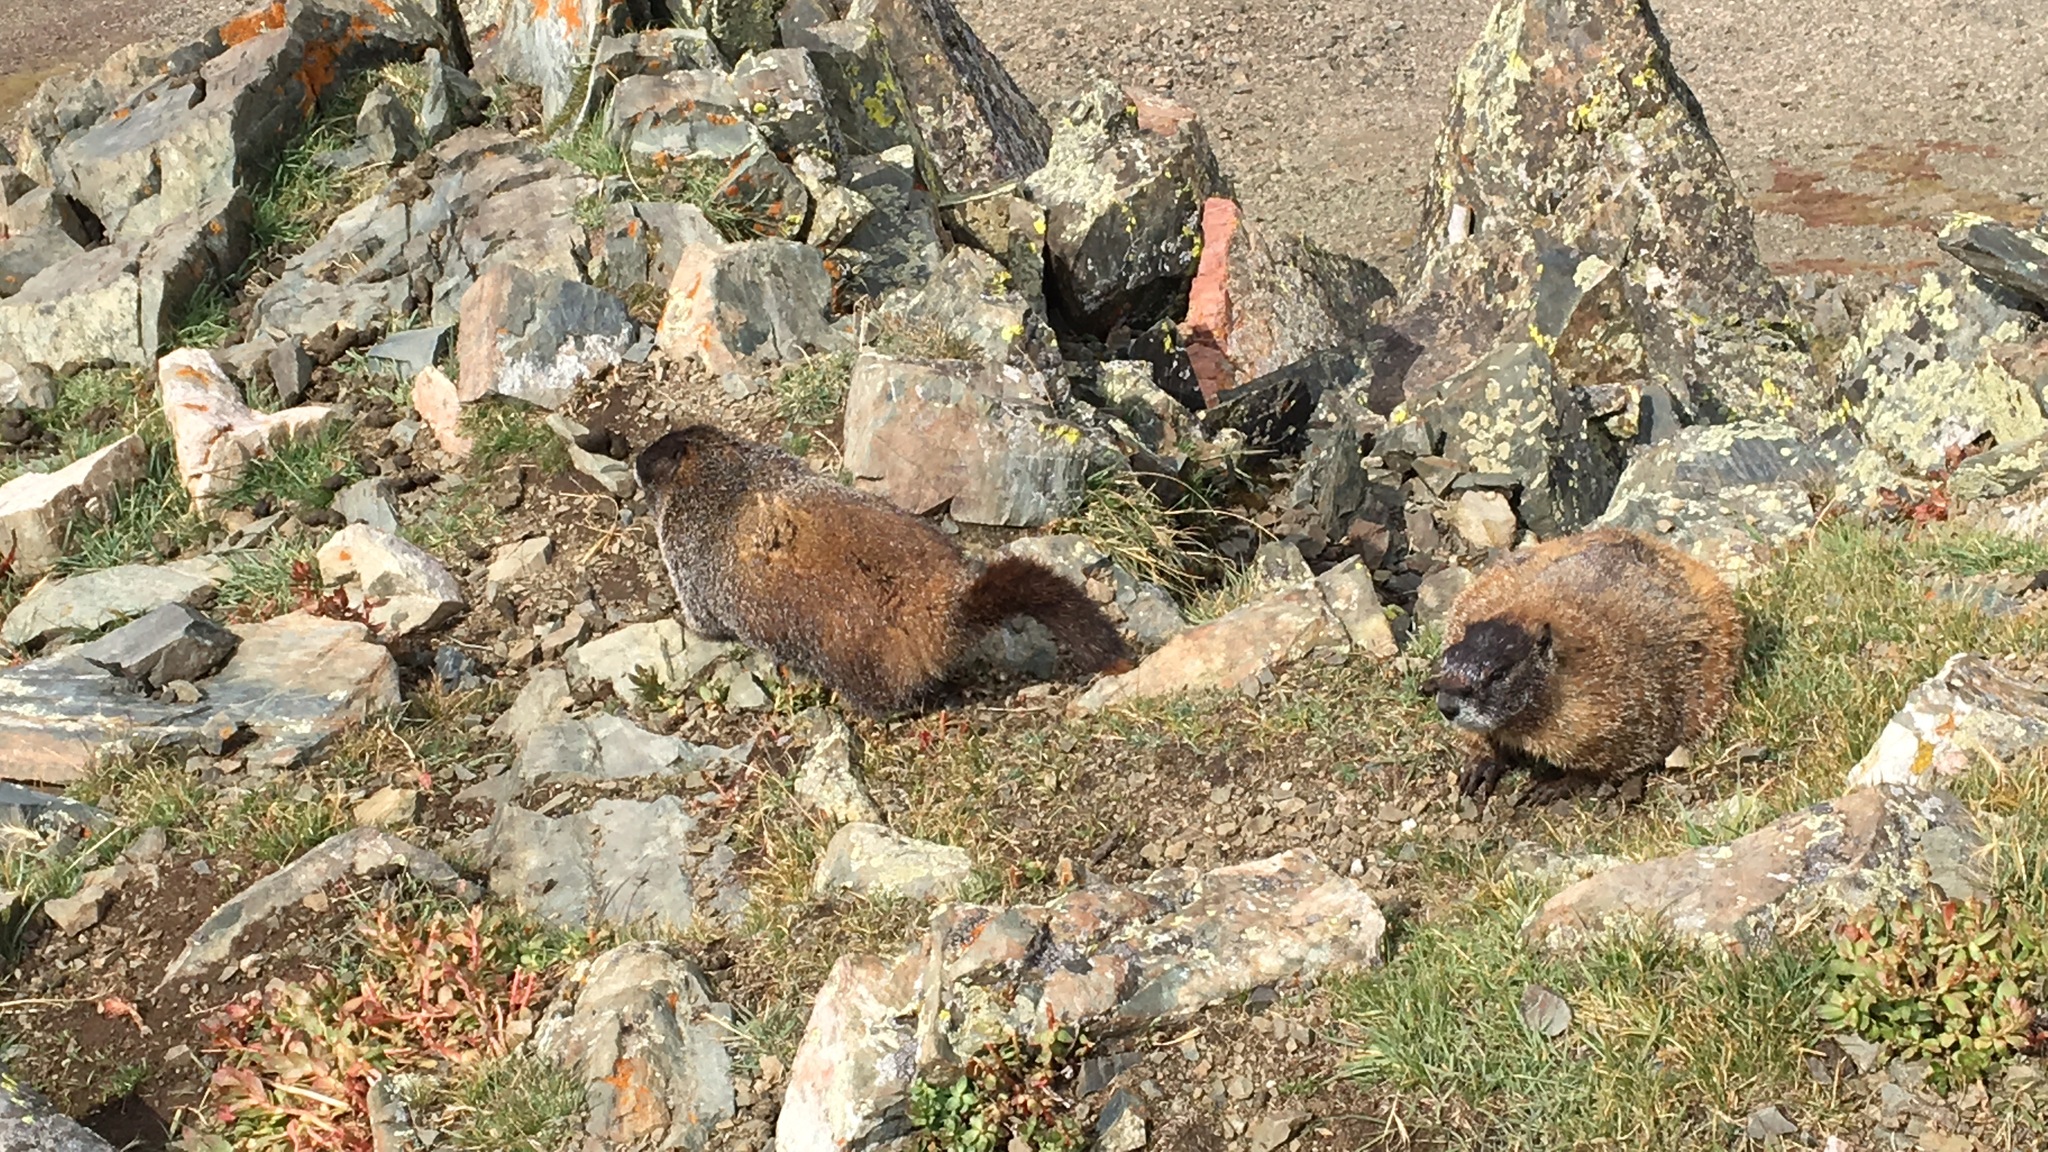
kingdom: Animalia
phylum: Chordata
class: Mammalia
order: Rodentia
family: Sciuridae
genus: Marmota
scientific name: Marmota flaviventris
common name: Yellow-bellied marmot
